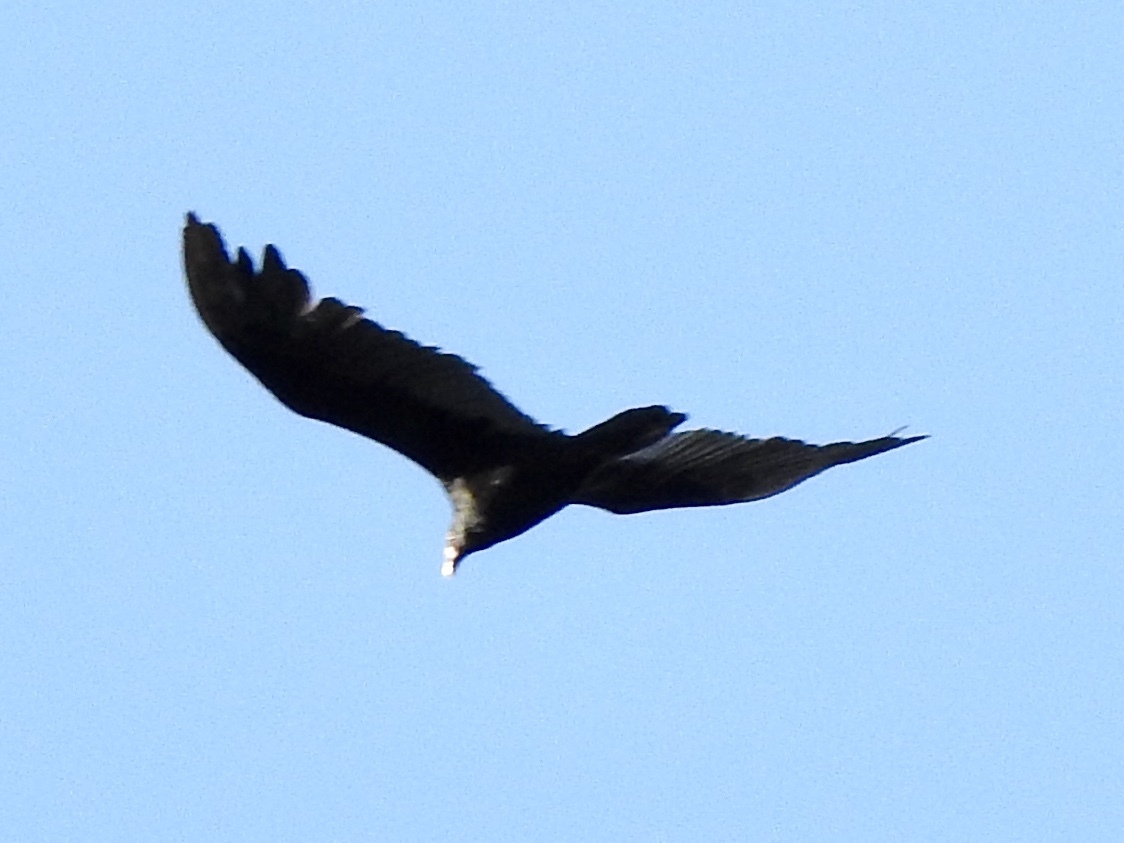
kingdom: Animalia
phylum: Chordata
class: Aves
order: Accipitriformes
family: Cathartidae
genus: Cathartes
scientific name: Cathartes aura
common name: Turkey vulture
